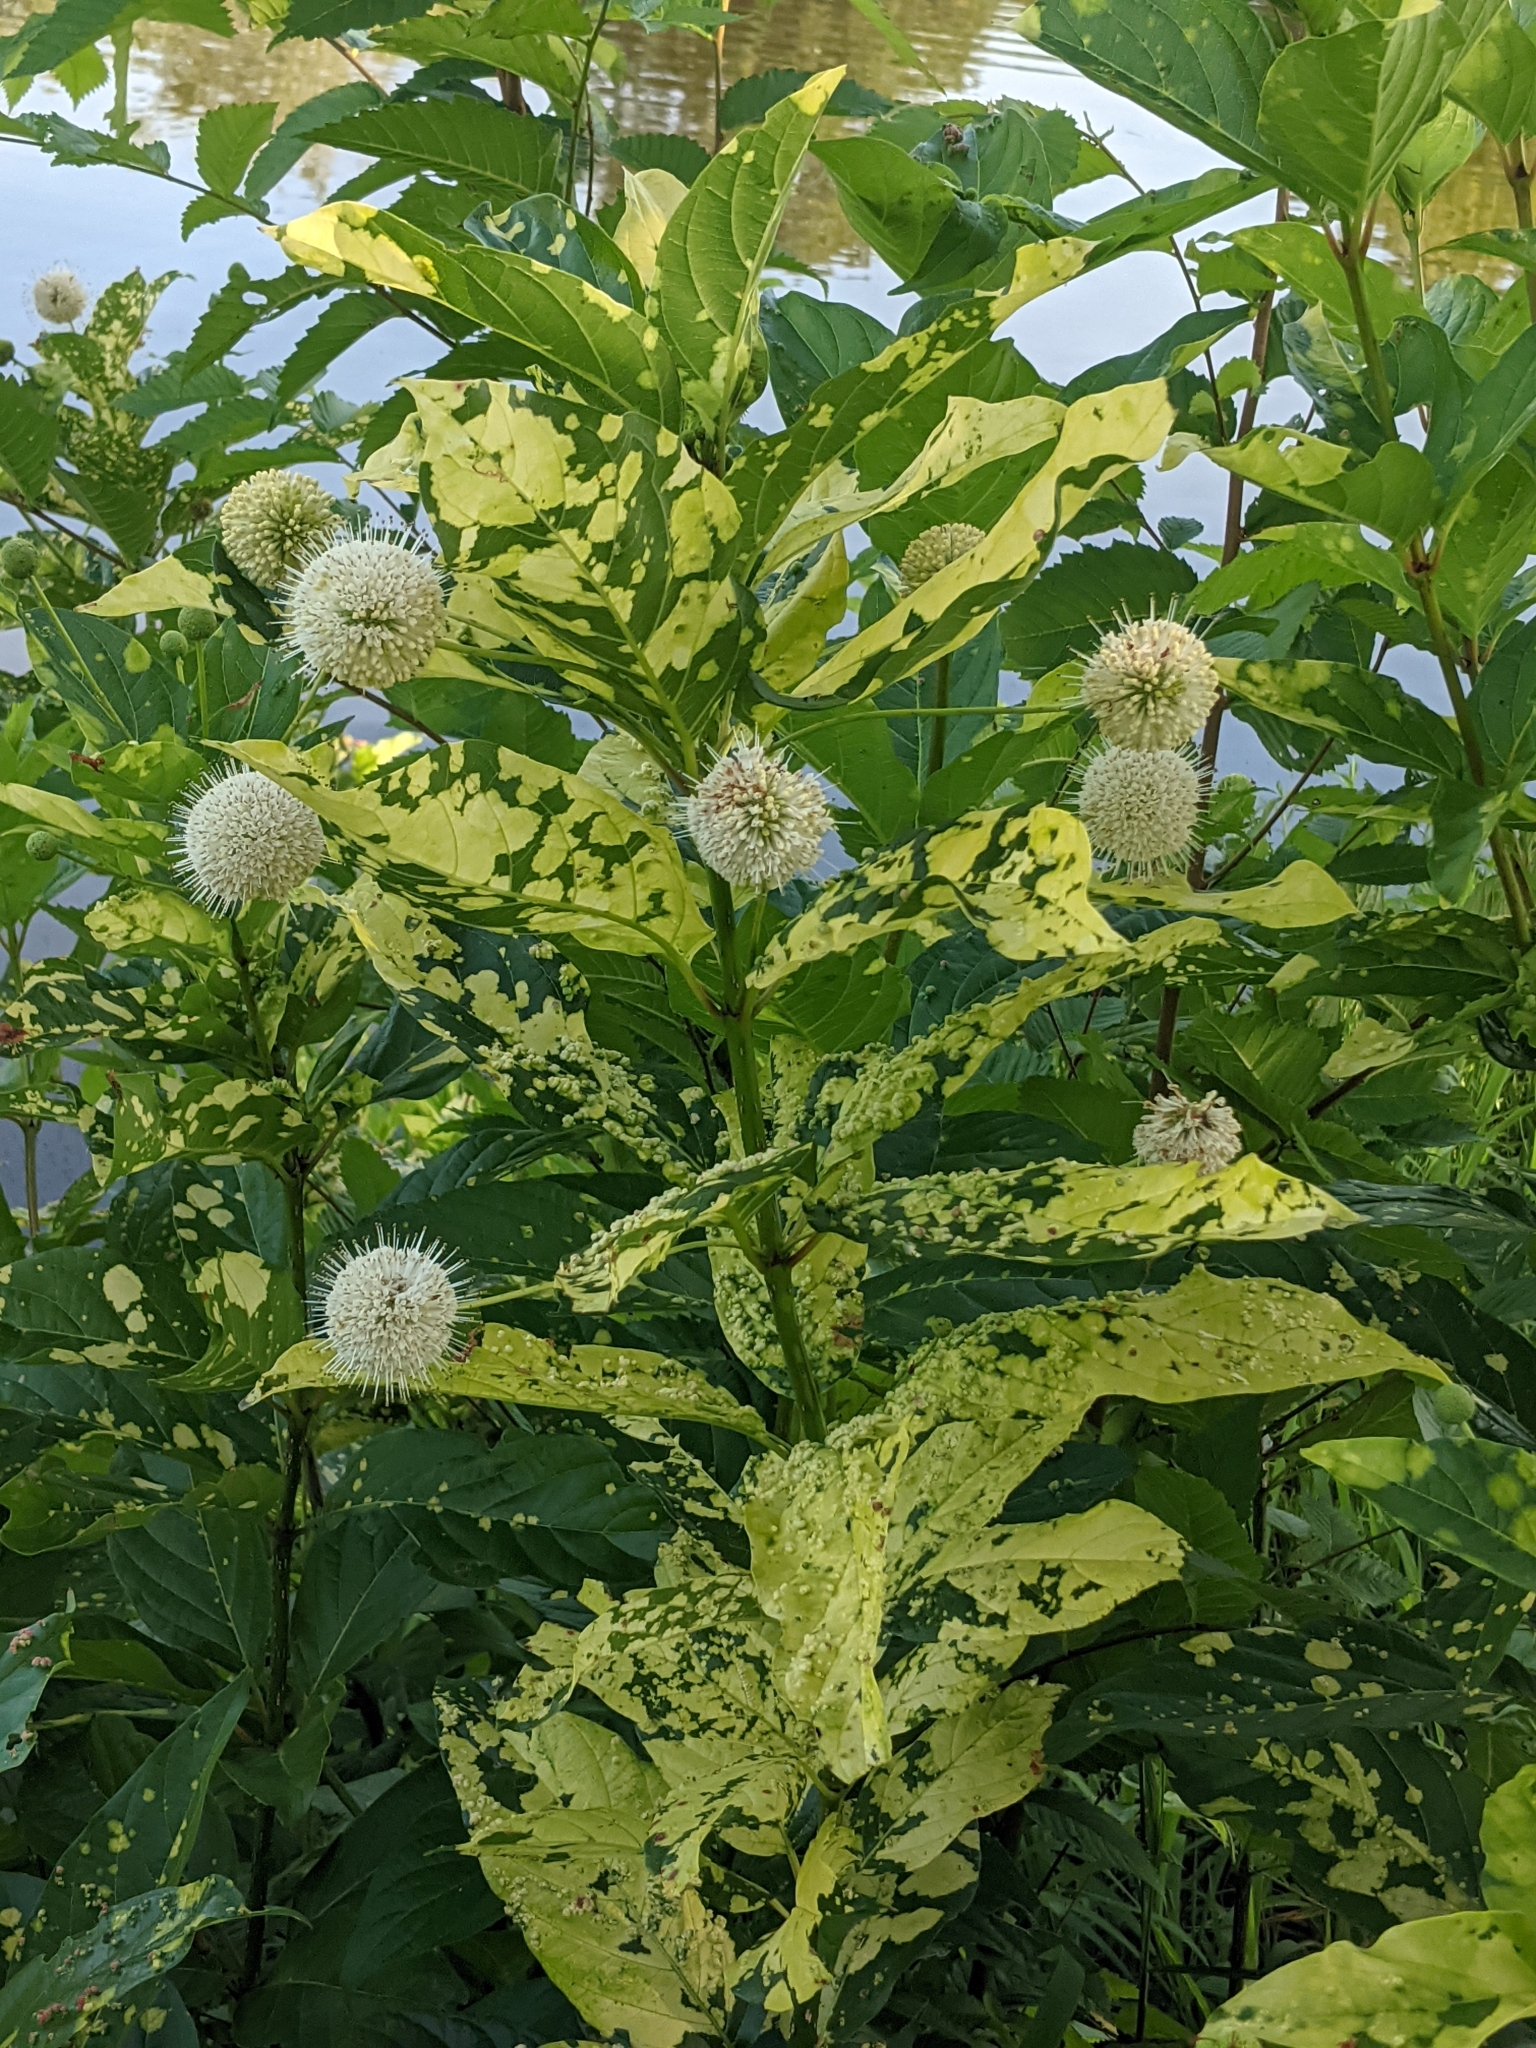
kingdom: Plantae
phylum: Tracheophyta
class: Magnoliopsida
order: Gentianales
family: Rubiaceae
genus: Cephalanthus
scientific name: Cephalanthus occidentalis
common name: Button-willow
